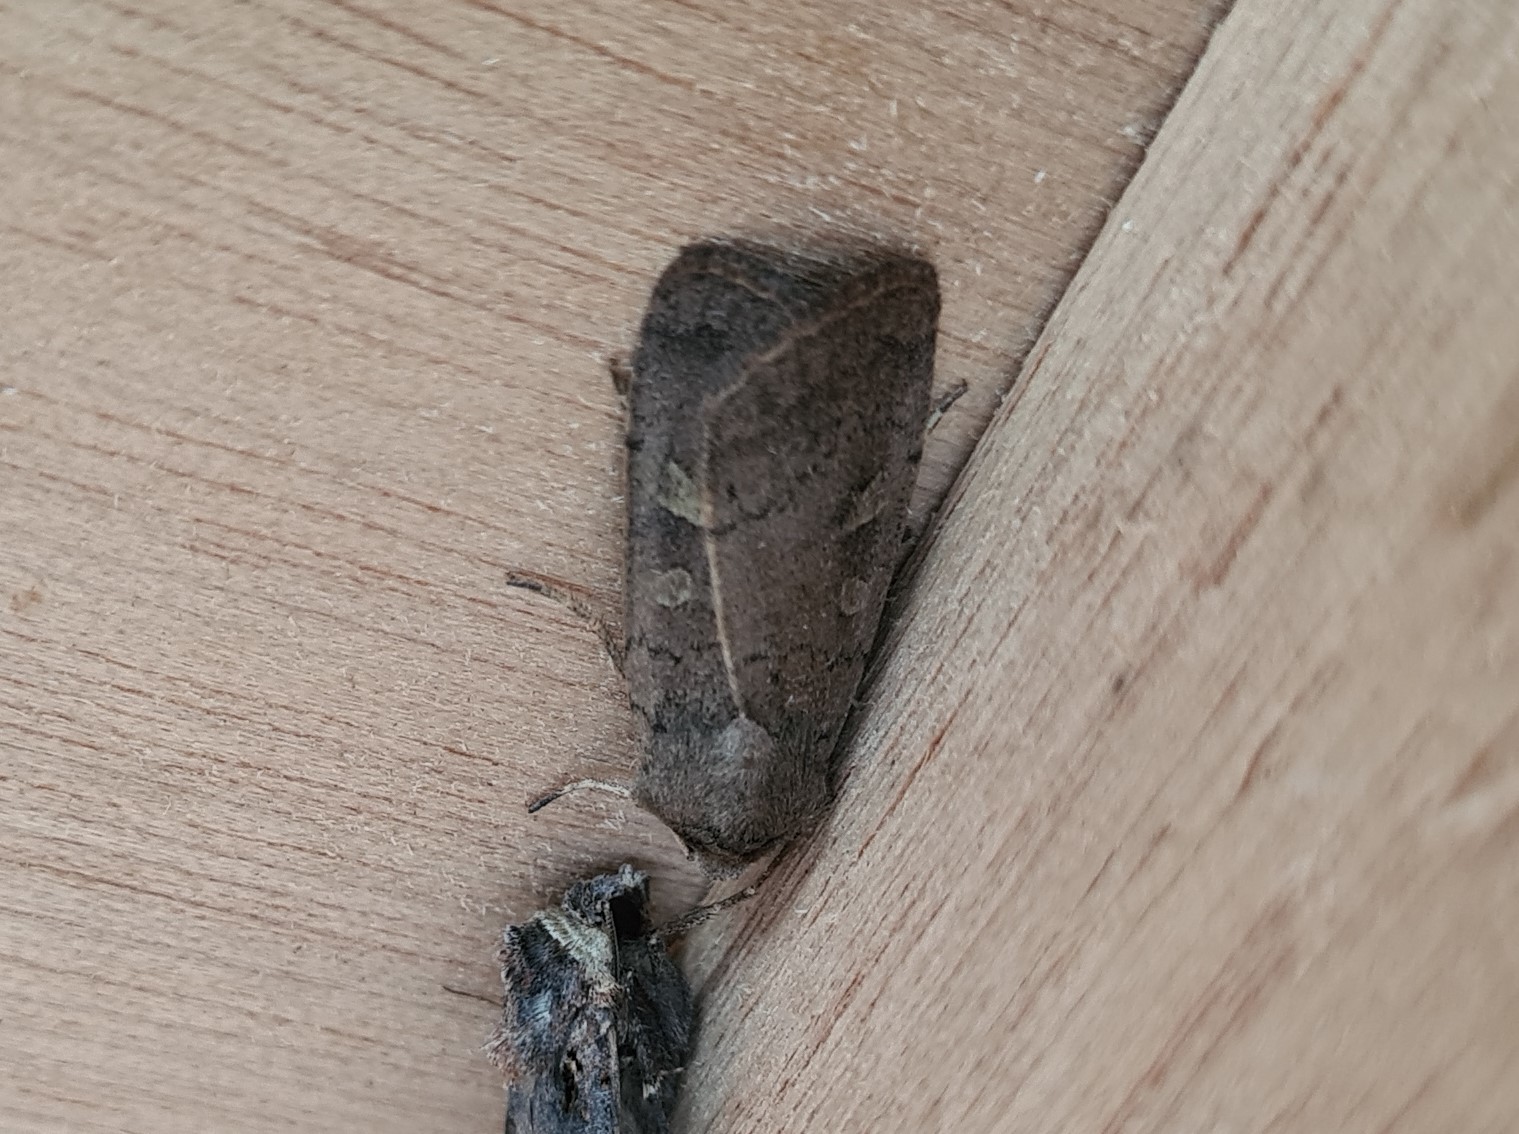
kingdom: Animalia
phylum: Arthropoda
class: Insecta
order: Lepidoptera
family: Noctuidae
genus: Xestia
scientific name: Xestia xanthographa
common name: Square-spot rustic
